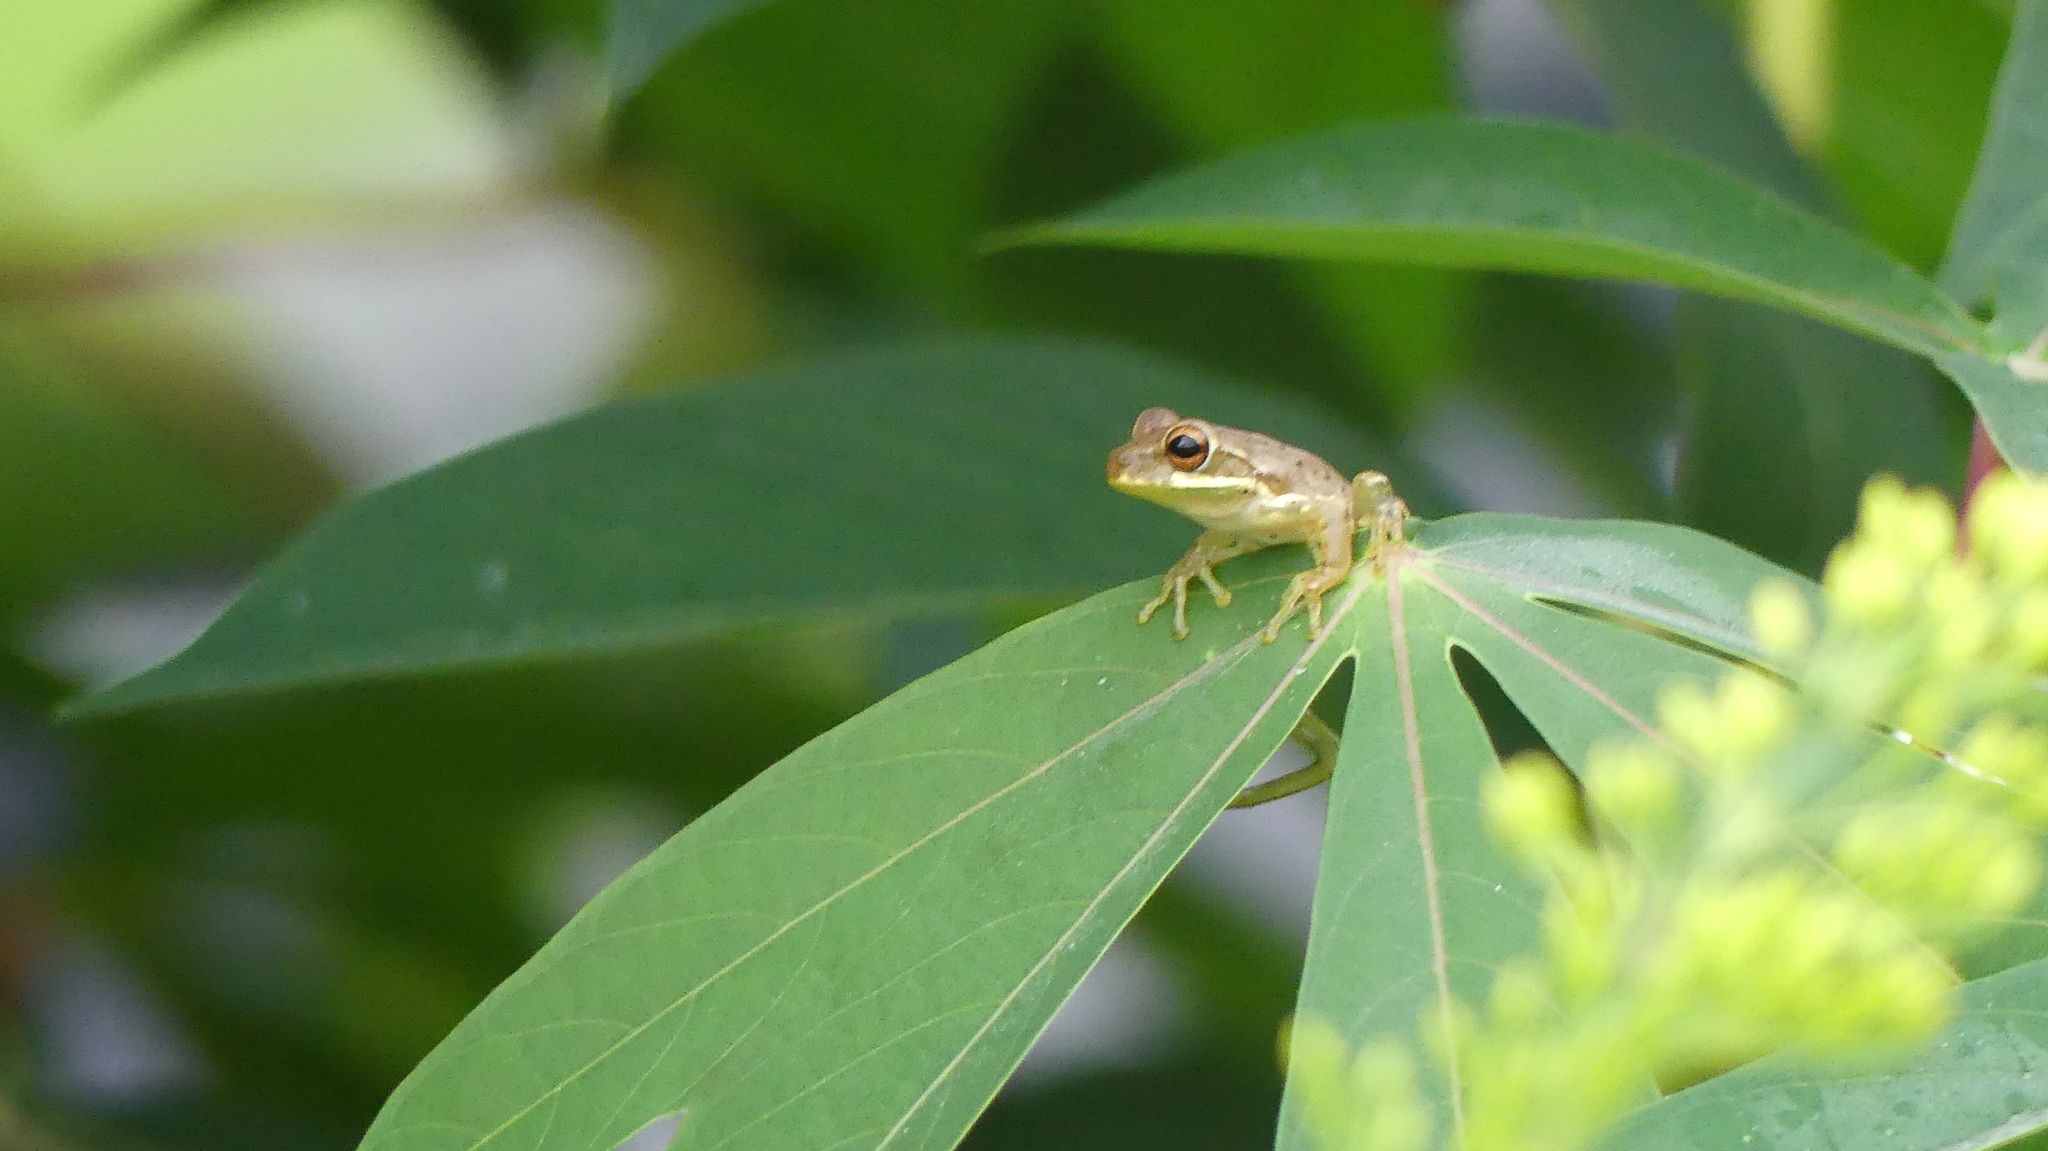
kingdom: Animalia
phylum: Chordata
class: Amphibia
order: Anura
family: Hylidae
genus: Osteopilus
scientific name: Osteopilus septentrionalis
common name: Cuban treefrog
